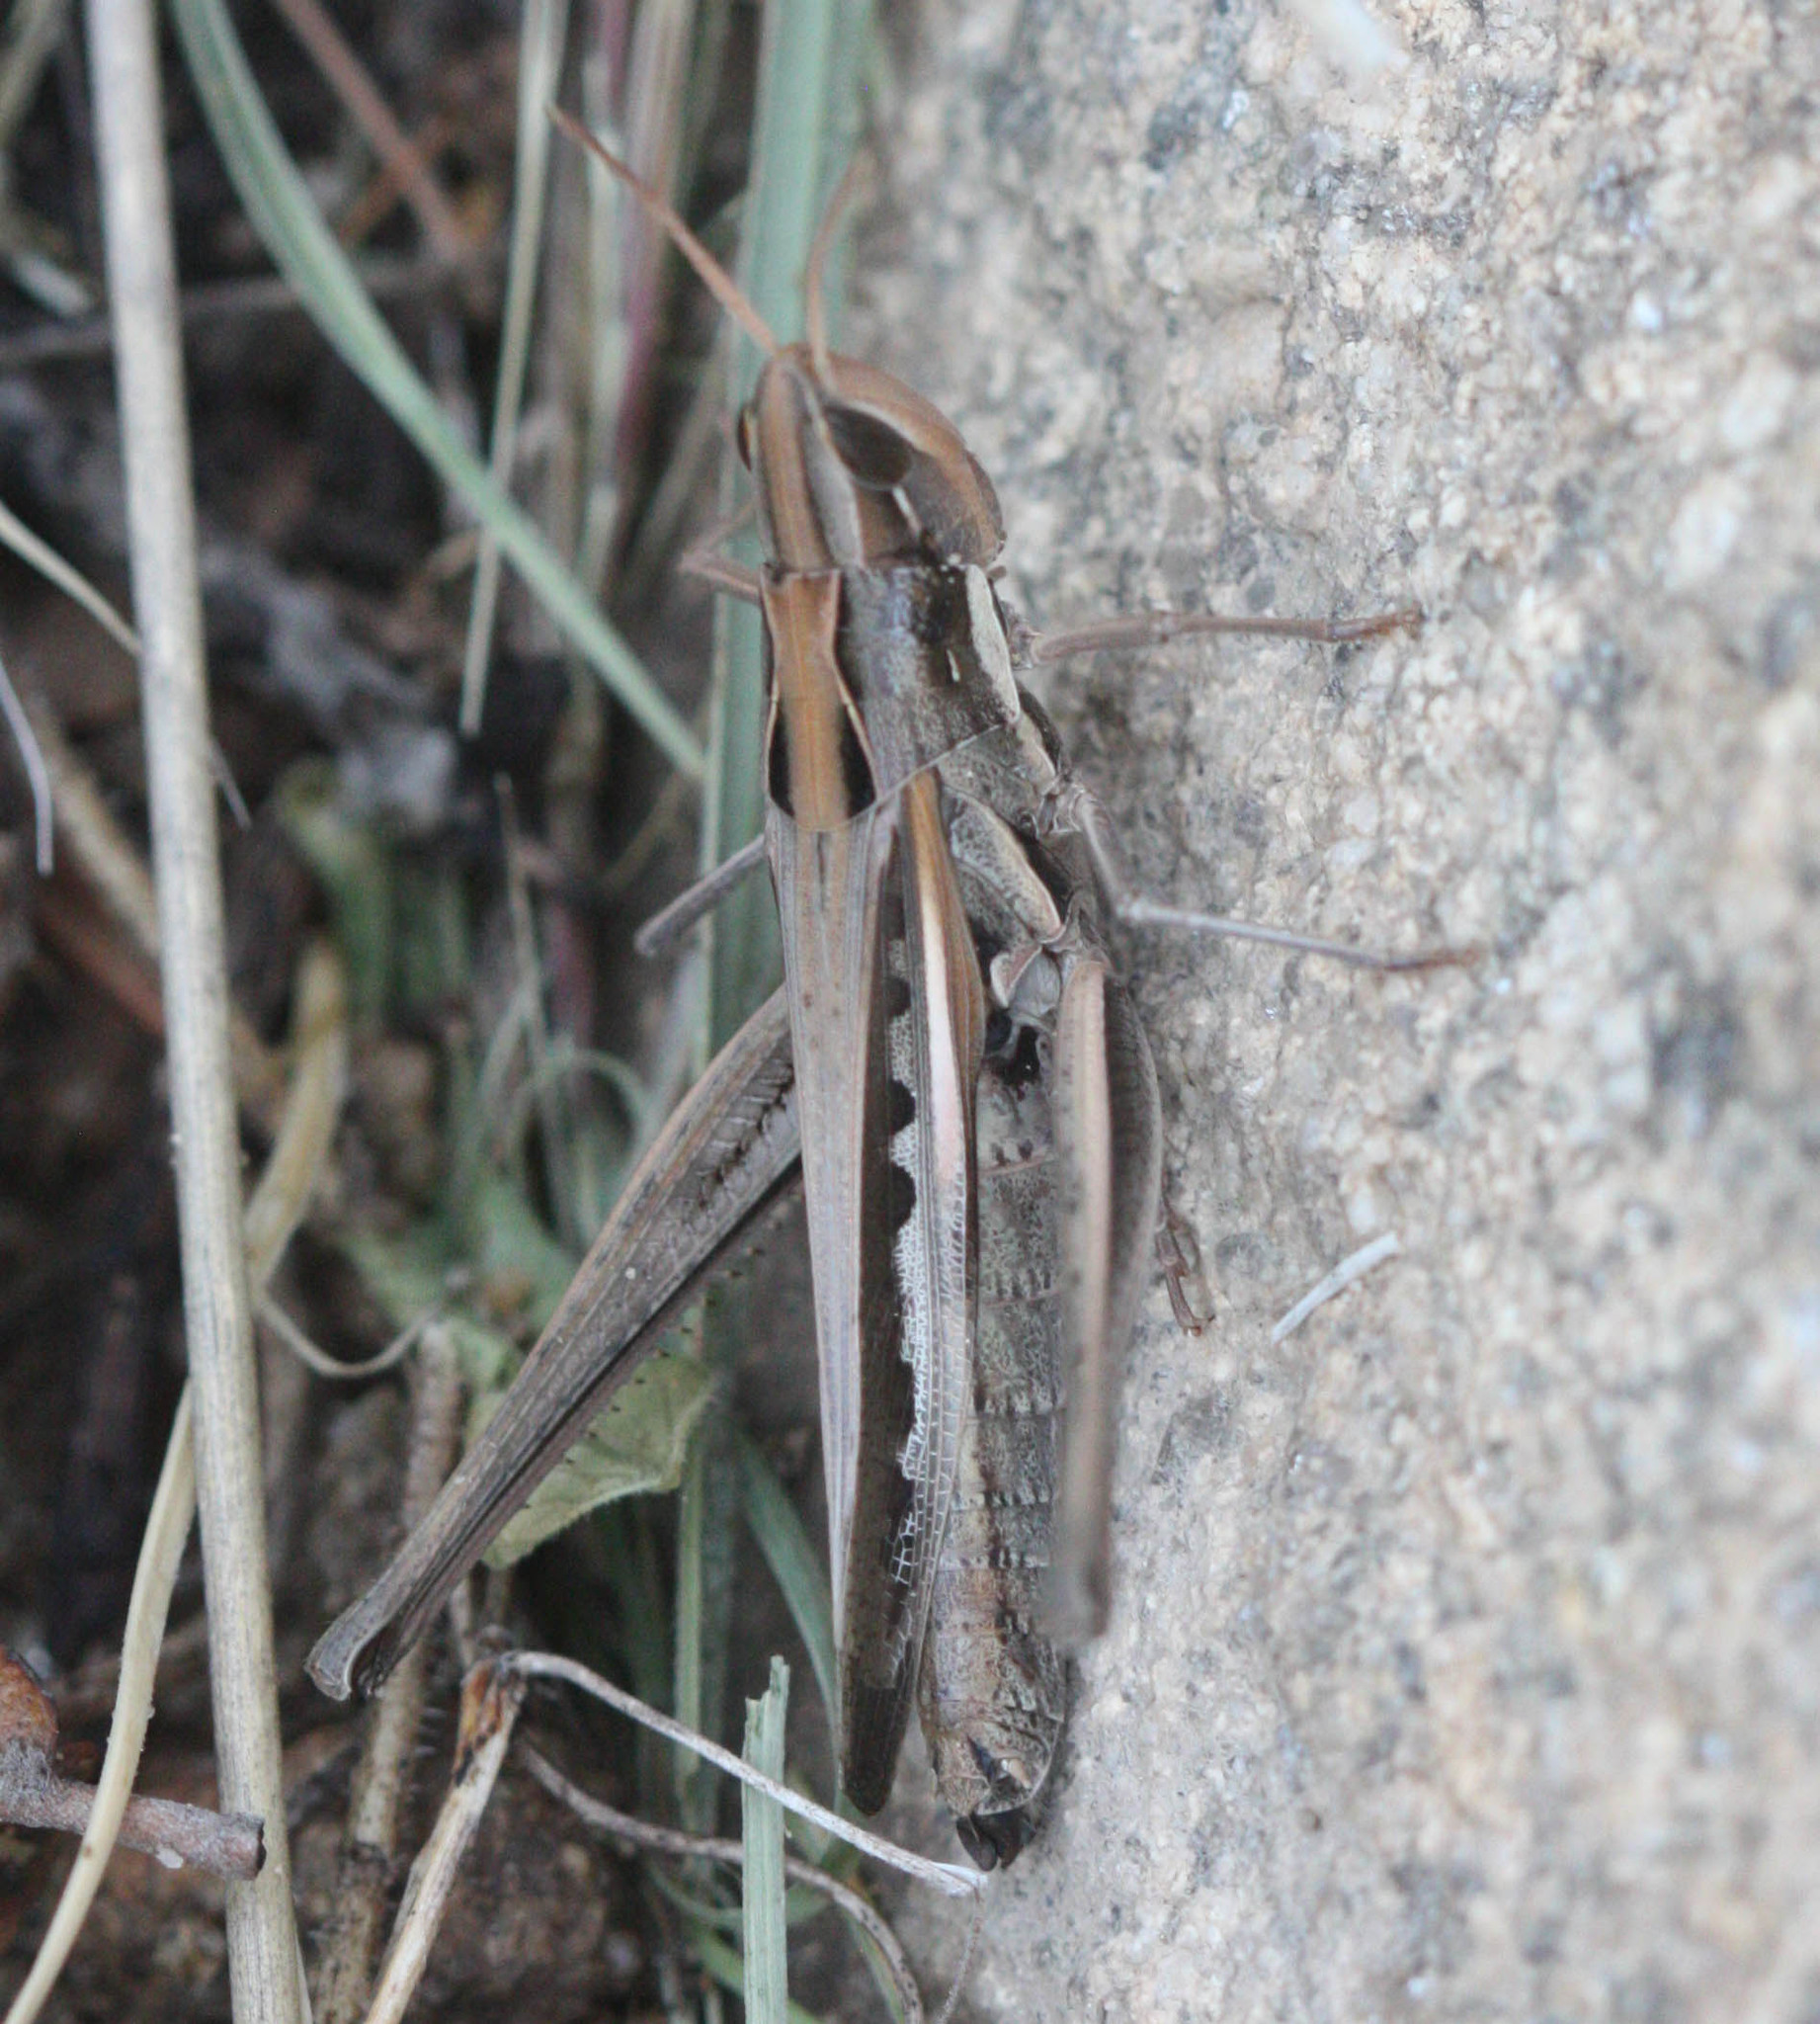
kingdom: Animalia
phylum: Arthropoda
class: Insecta
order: Orthoptera
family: Acrididae
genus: Syrbula
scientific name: Syrbula montezuma
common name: Montezuma's grasshopper
